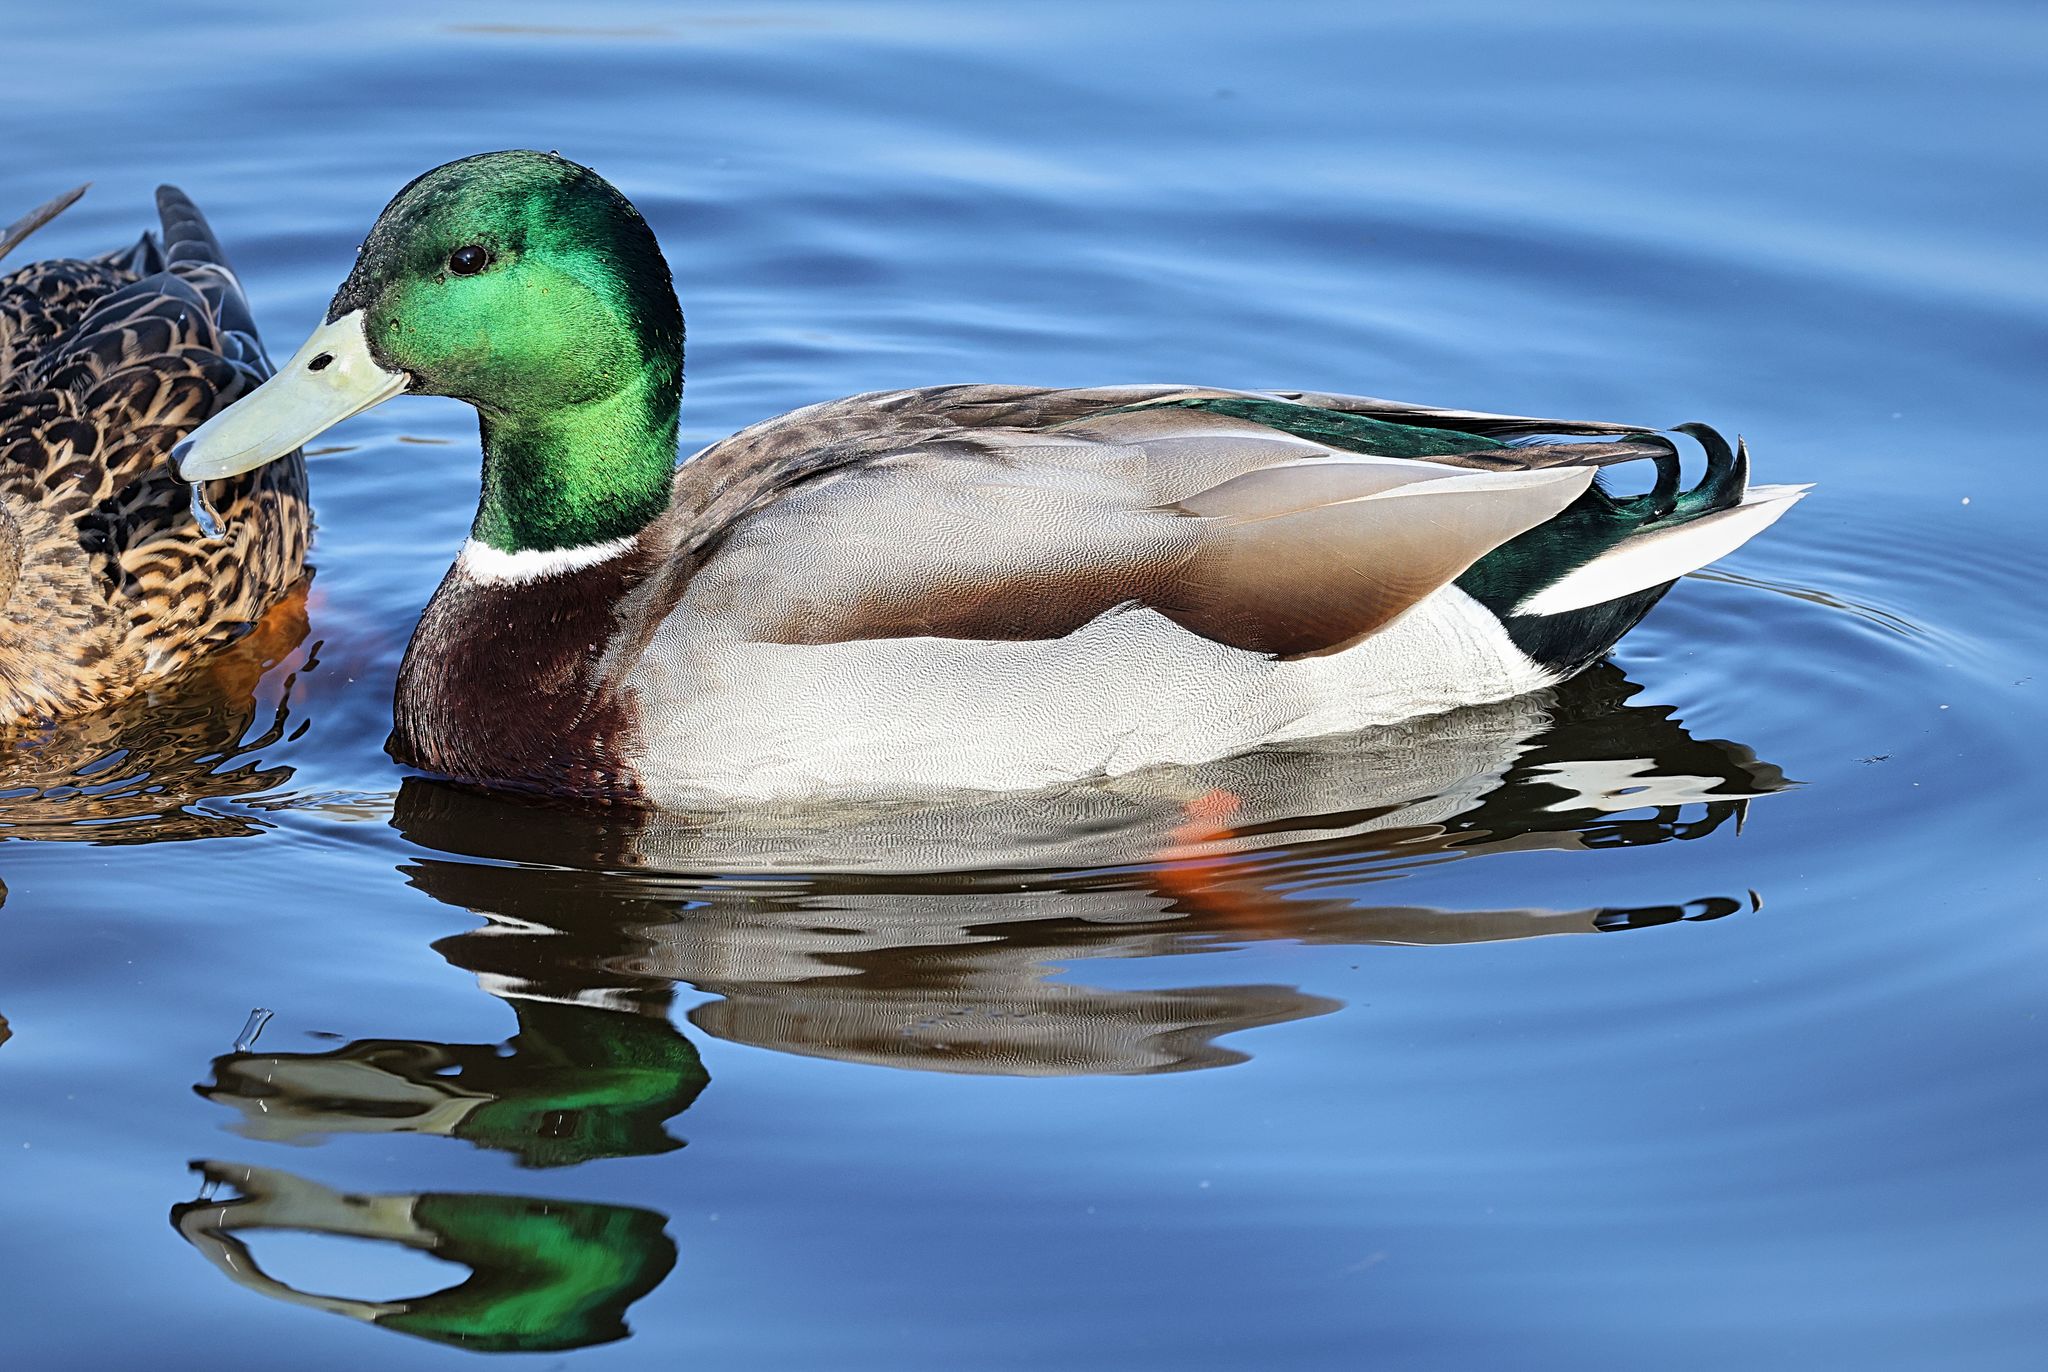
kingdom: Animalia
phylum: Chordata
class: Aves
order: Anseriformes
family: Anatidae
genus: Anas
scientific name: Anas platyrhynchos
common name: Mallard
